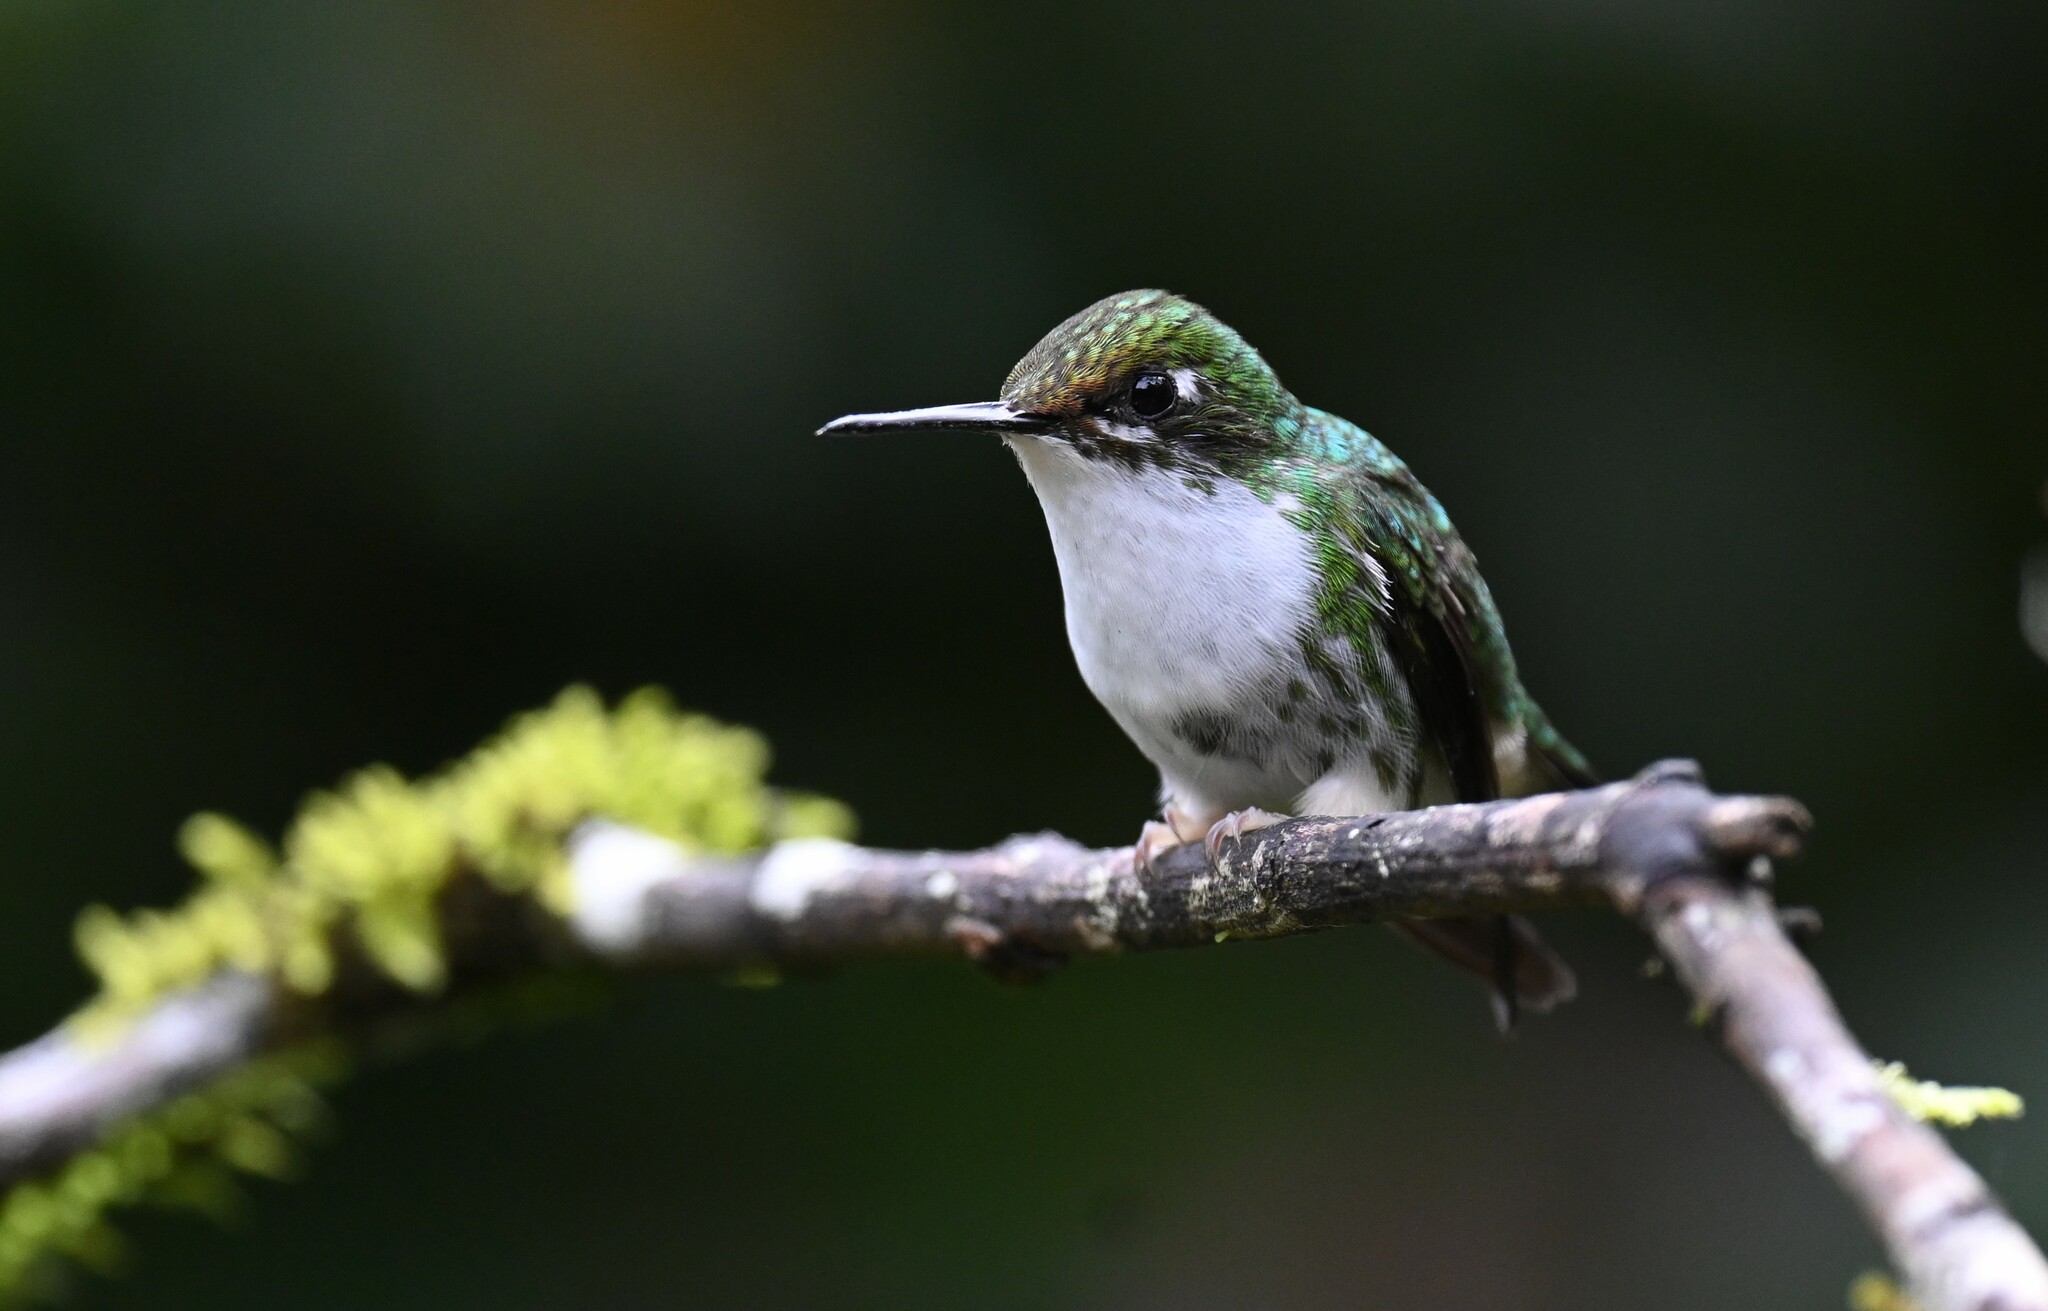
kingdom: Animalia
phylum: Chordata
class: Aves
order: Apodiformes
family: Trochilidae
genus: Ocreatus
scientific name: Ocreatus underwoodii
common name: Booted racket-tail
